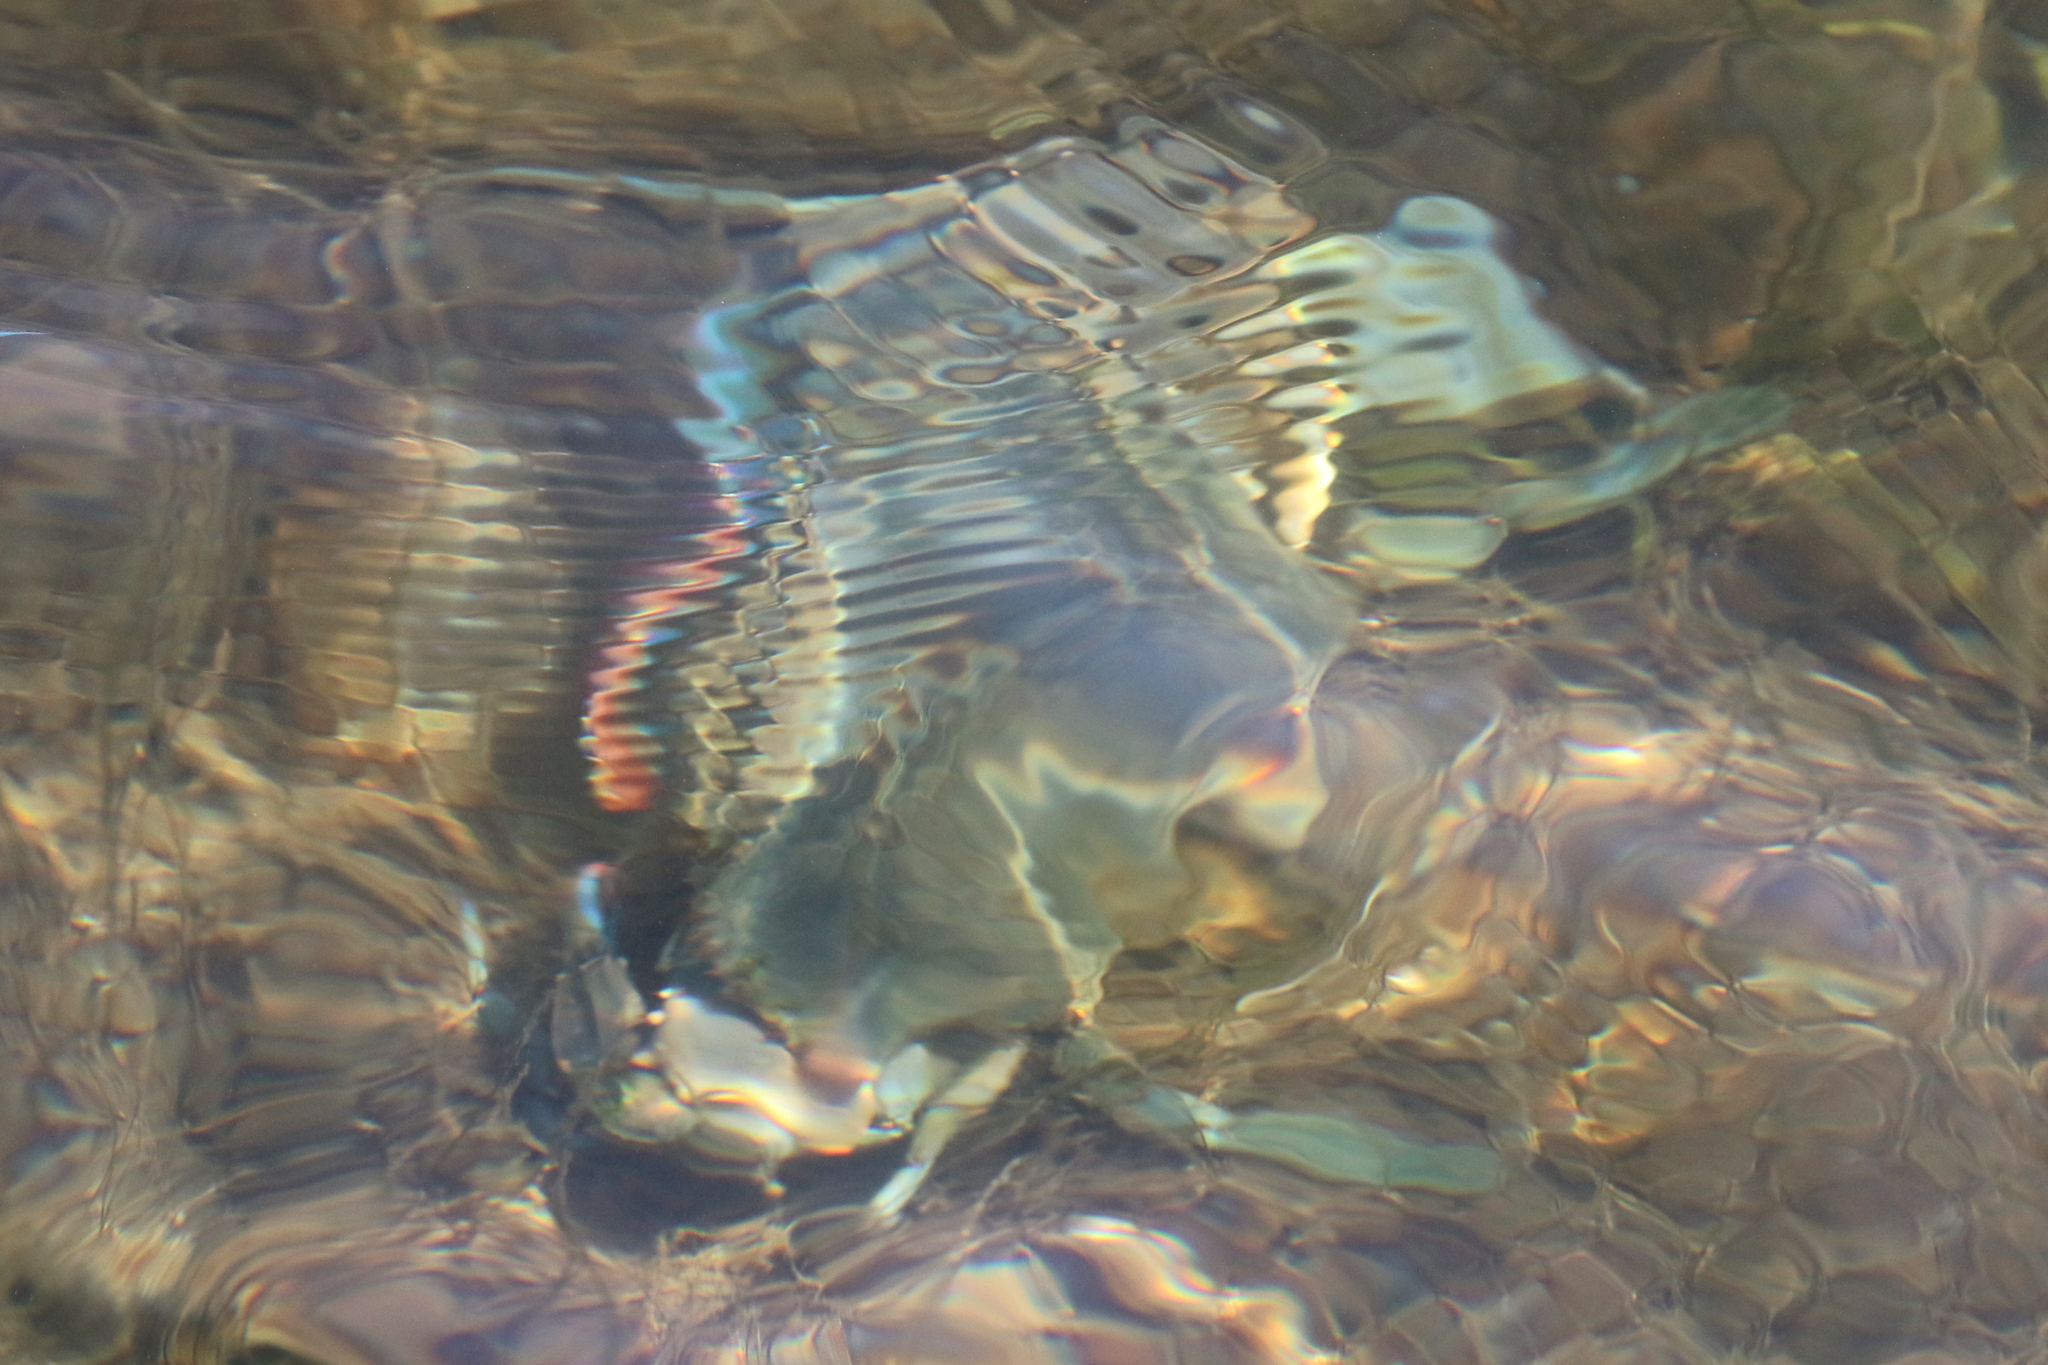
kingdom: Animalia
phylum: Arthropoda
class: Malacostraca
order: Decapoda
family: Portunidae
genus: Callinectes
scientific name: Callinectes sapidus
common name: Blue crab
